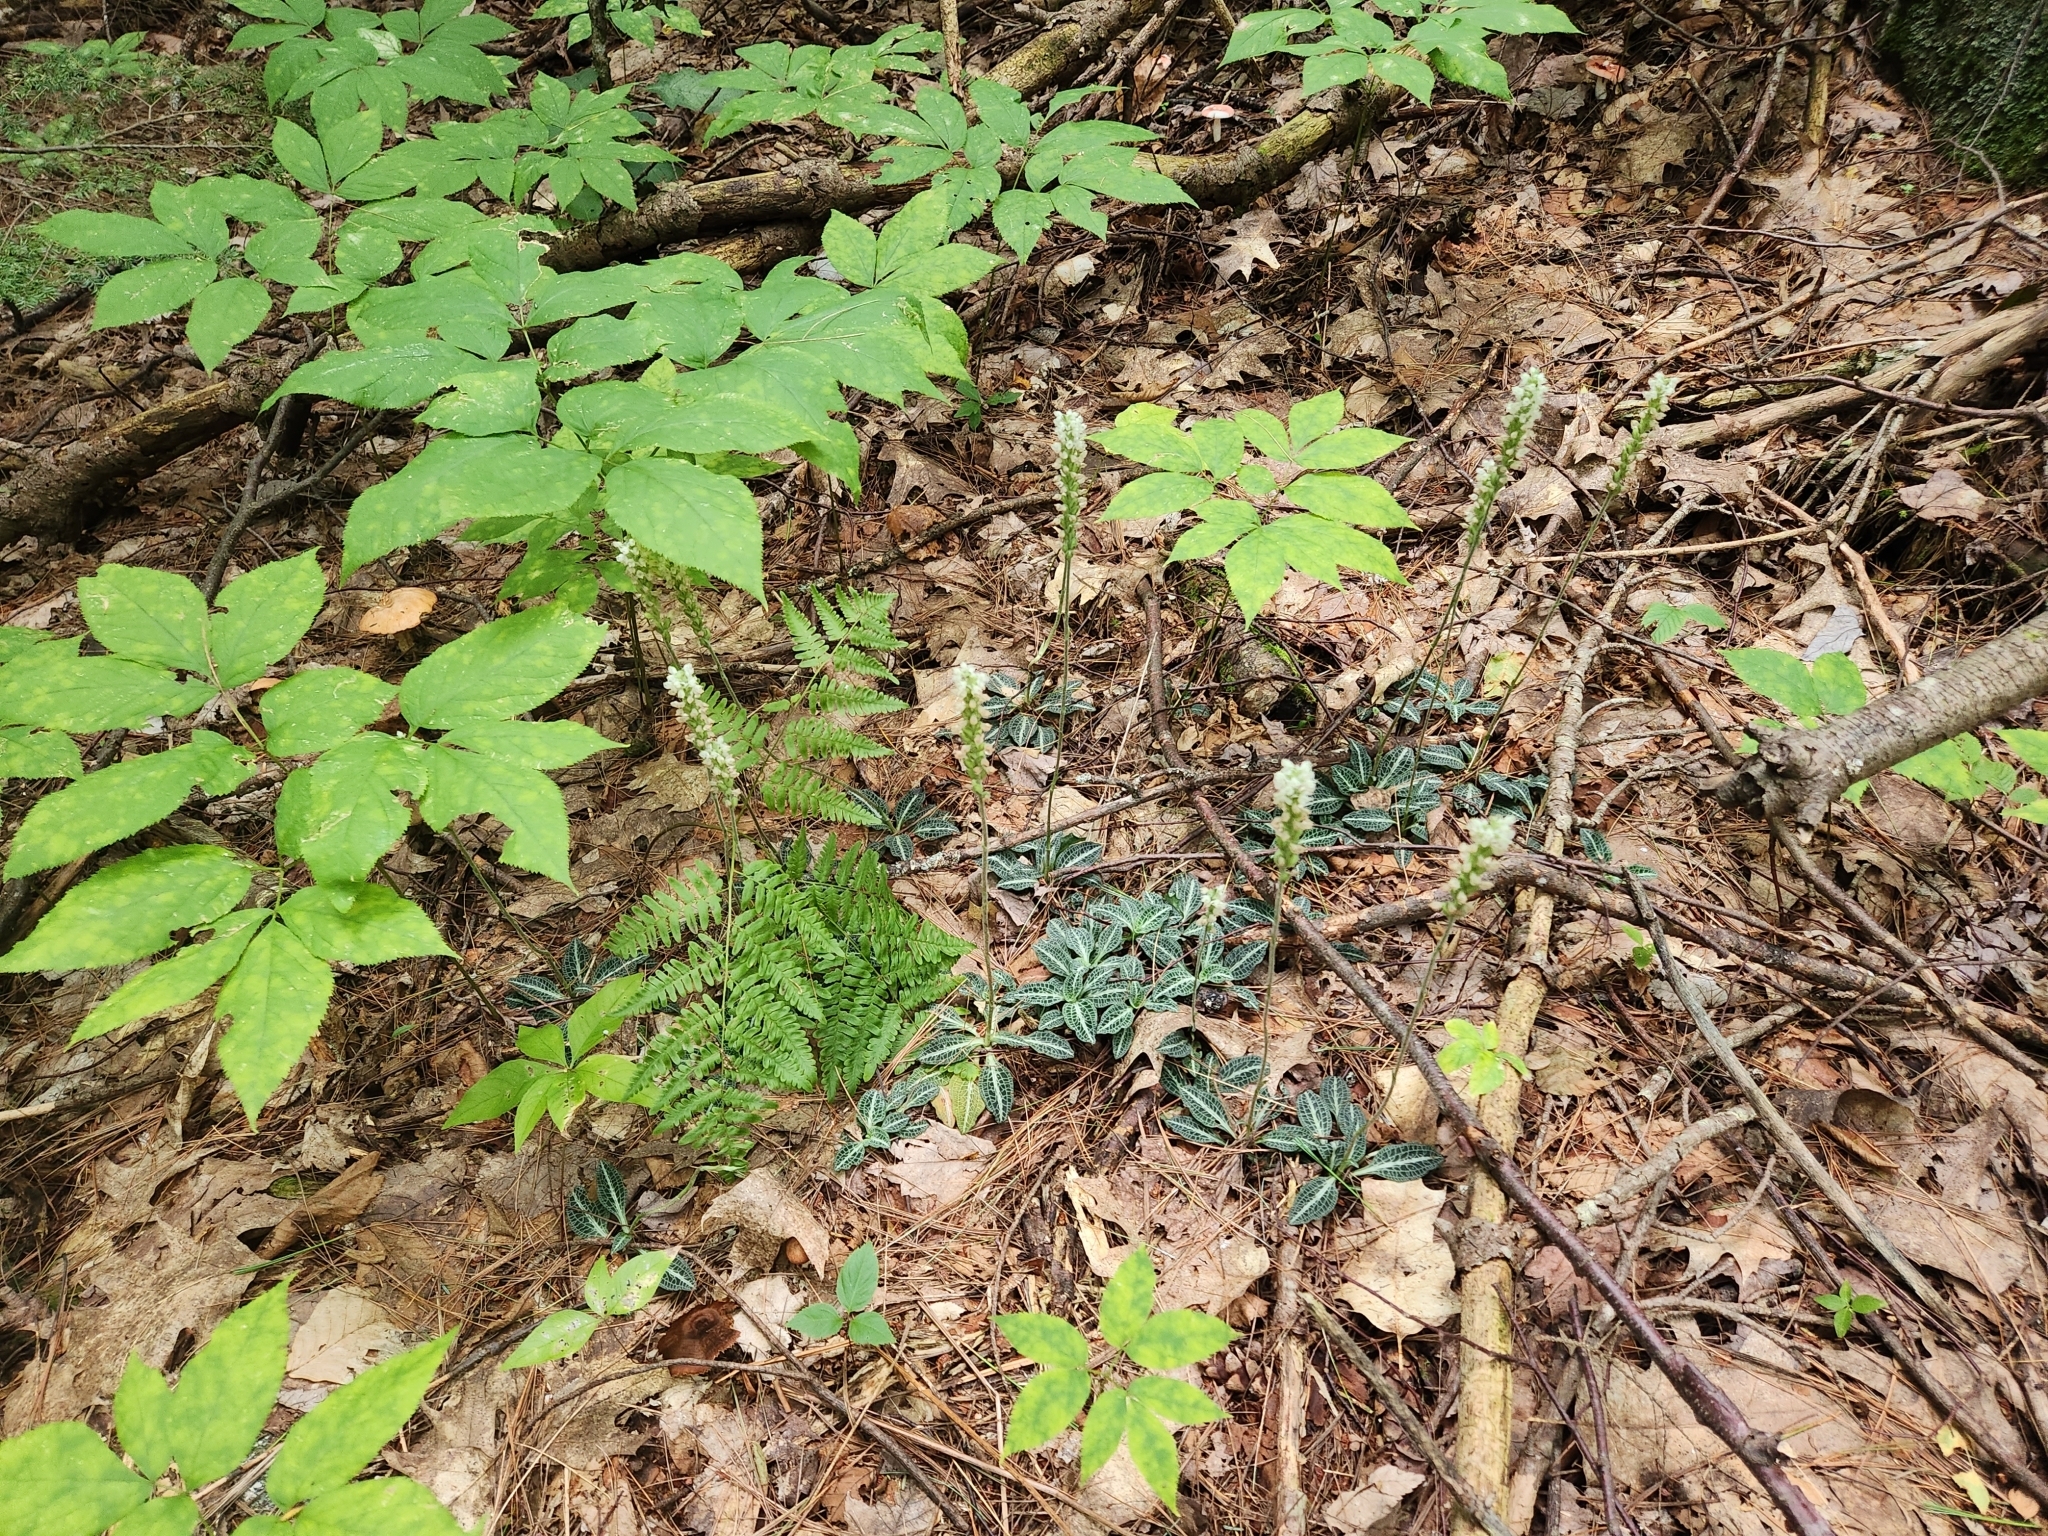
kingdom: Plantae
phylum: Tracheophyta
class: Liliopsida
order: Asparagales
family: Orchidaceae
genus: Goodyera
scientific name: Goodyera pubescens
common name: Downy rattlesnake-plantain
